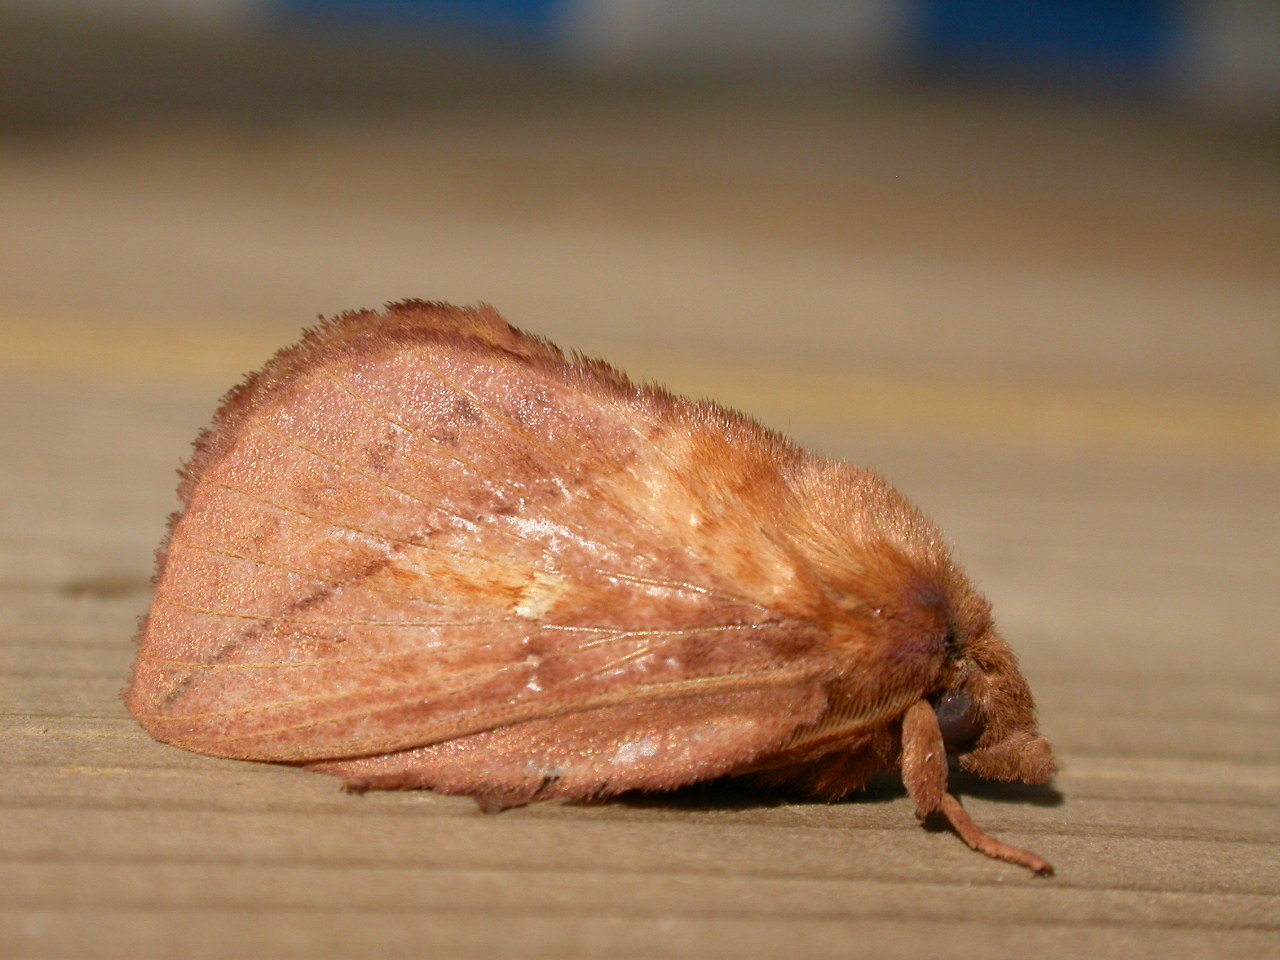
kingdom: Animalia
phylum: Arthropoda
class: Insecta
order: Lepidoptera
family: Lasiocampidae
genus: Euthrix
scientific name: Euthrix potatoria
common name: Drinker
